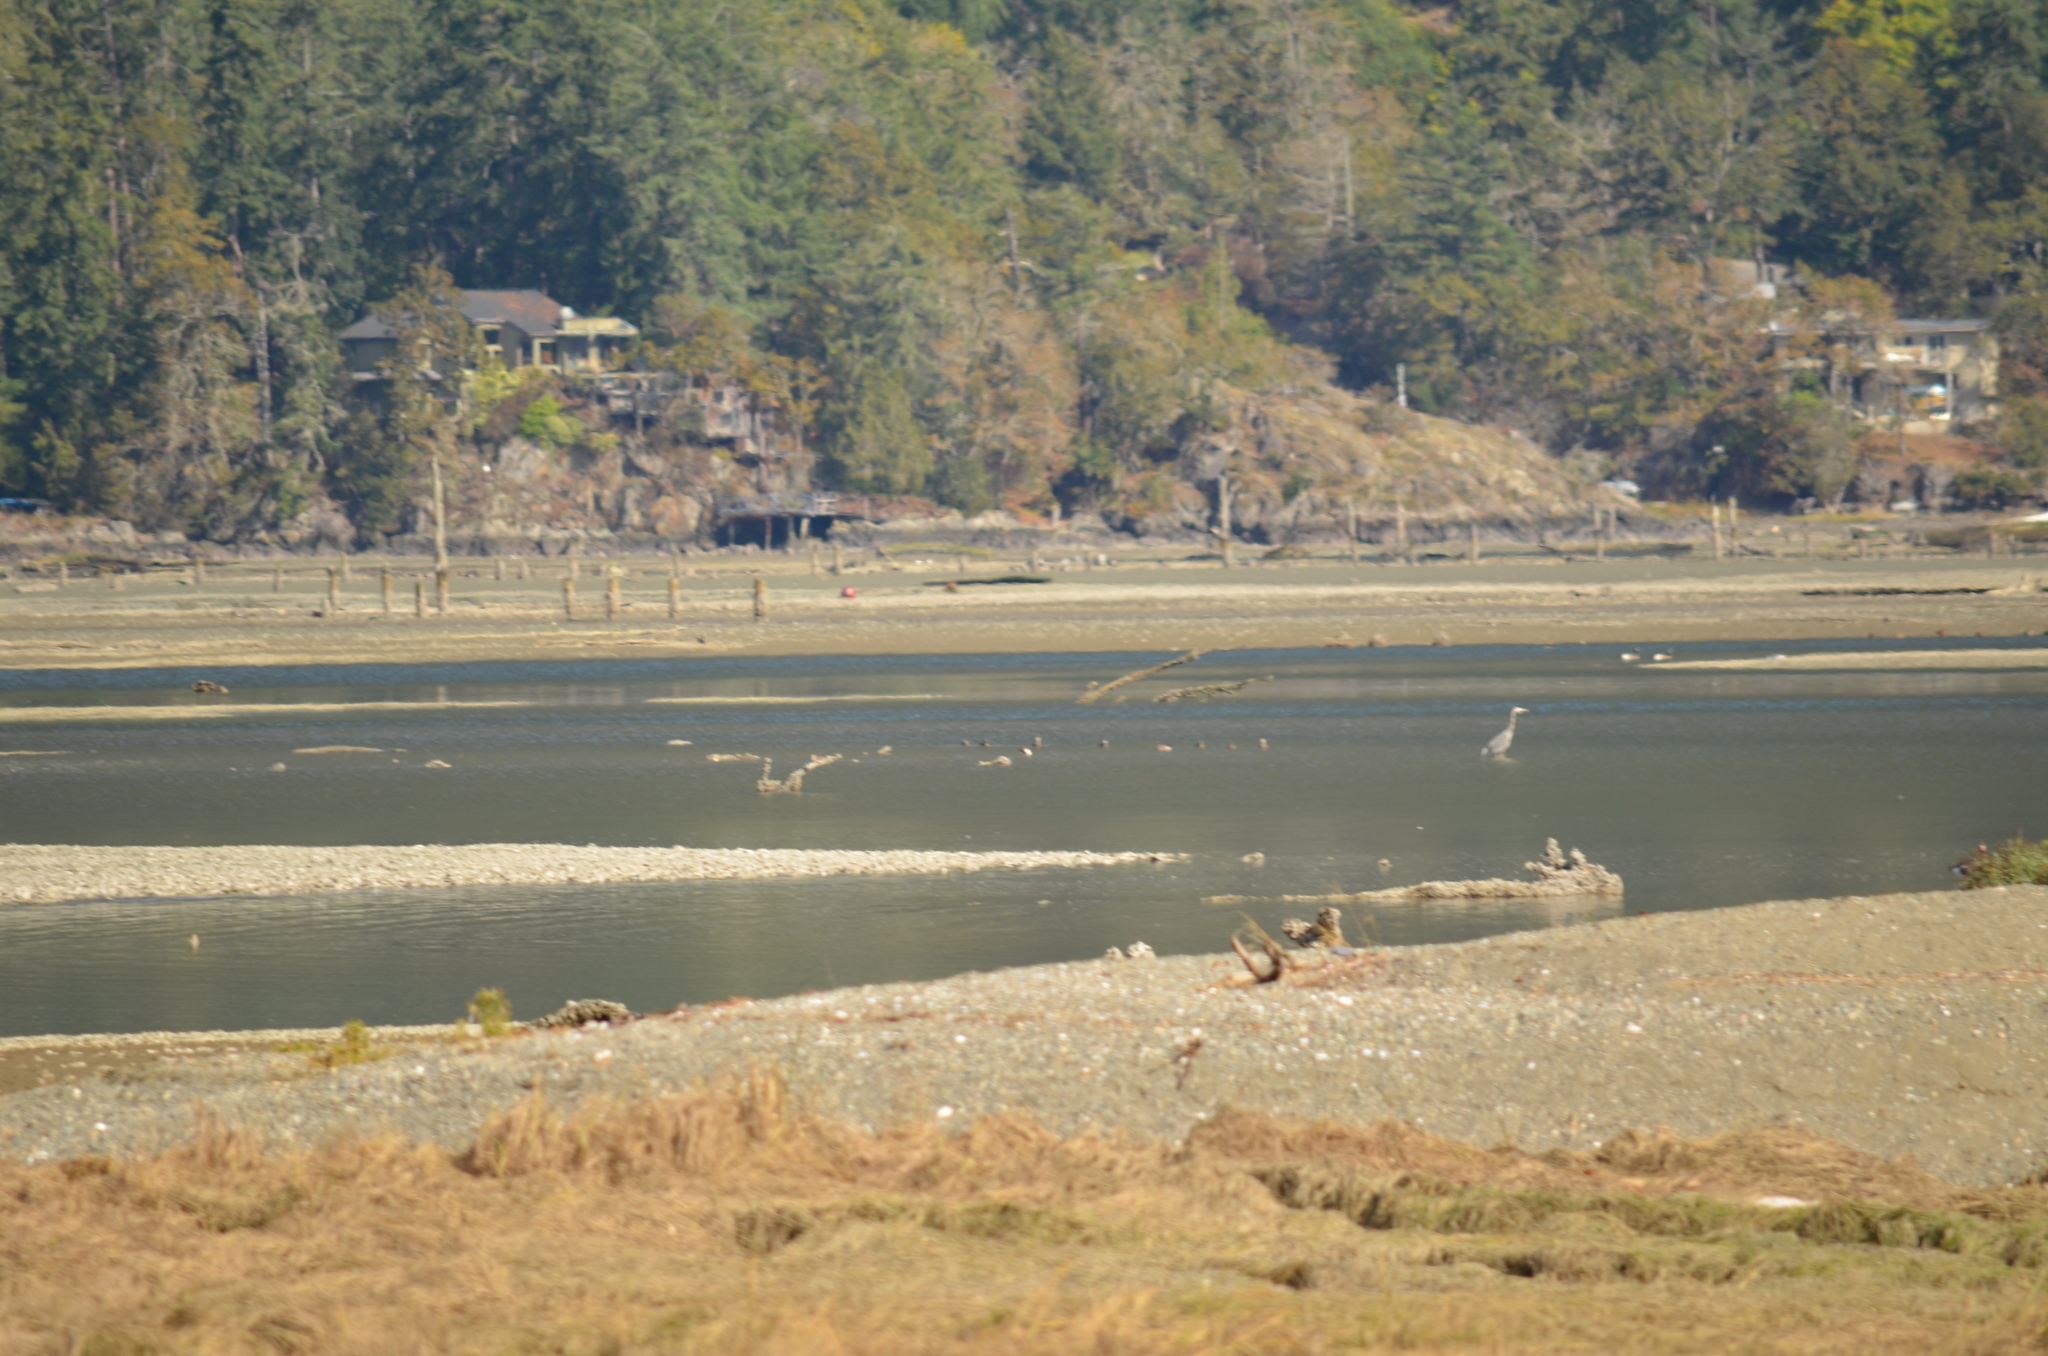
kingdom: Animalia
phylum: Chordata
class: Aves
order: Pelecaniformes
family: Ardeidae
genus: Ardea
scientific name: Ardea herodias
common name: Great blue heron
